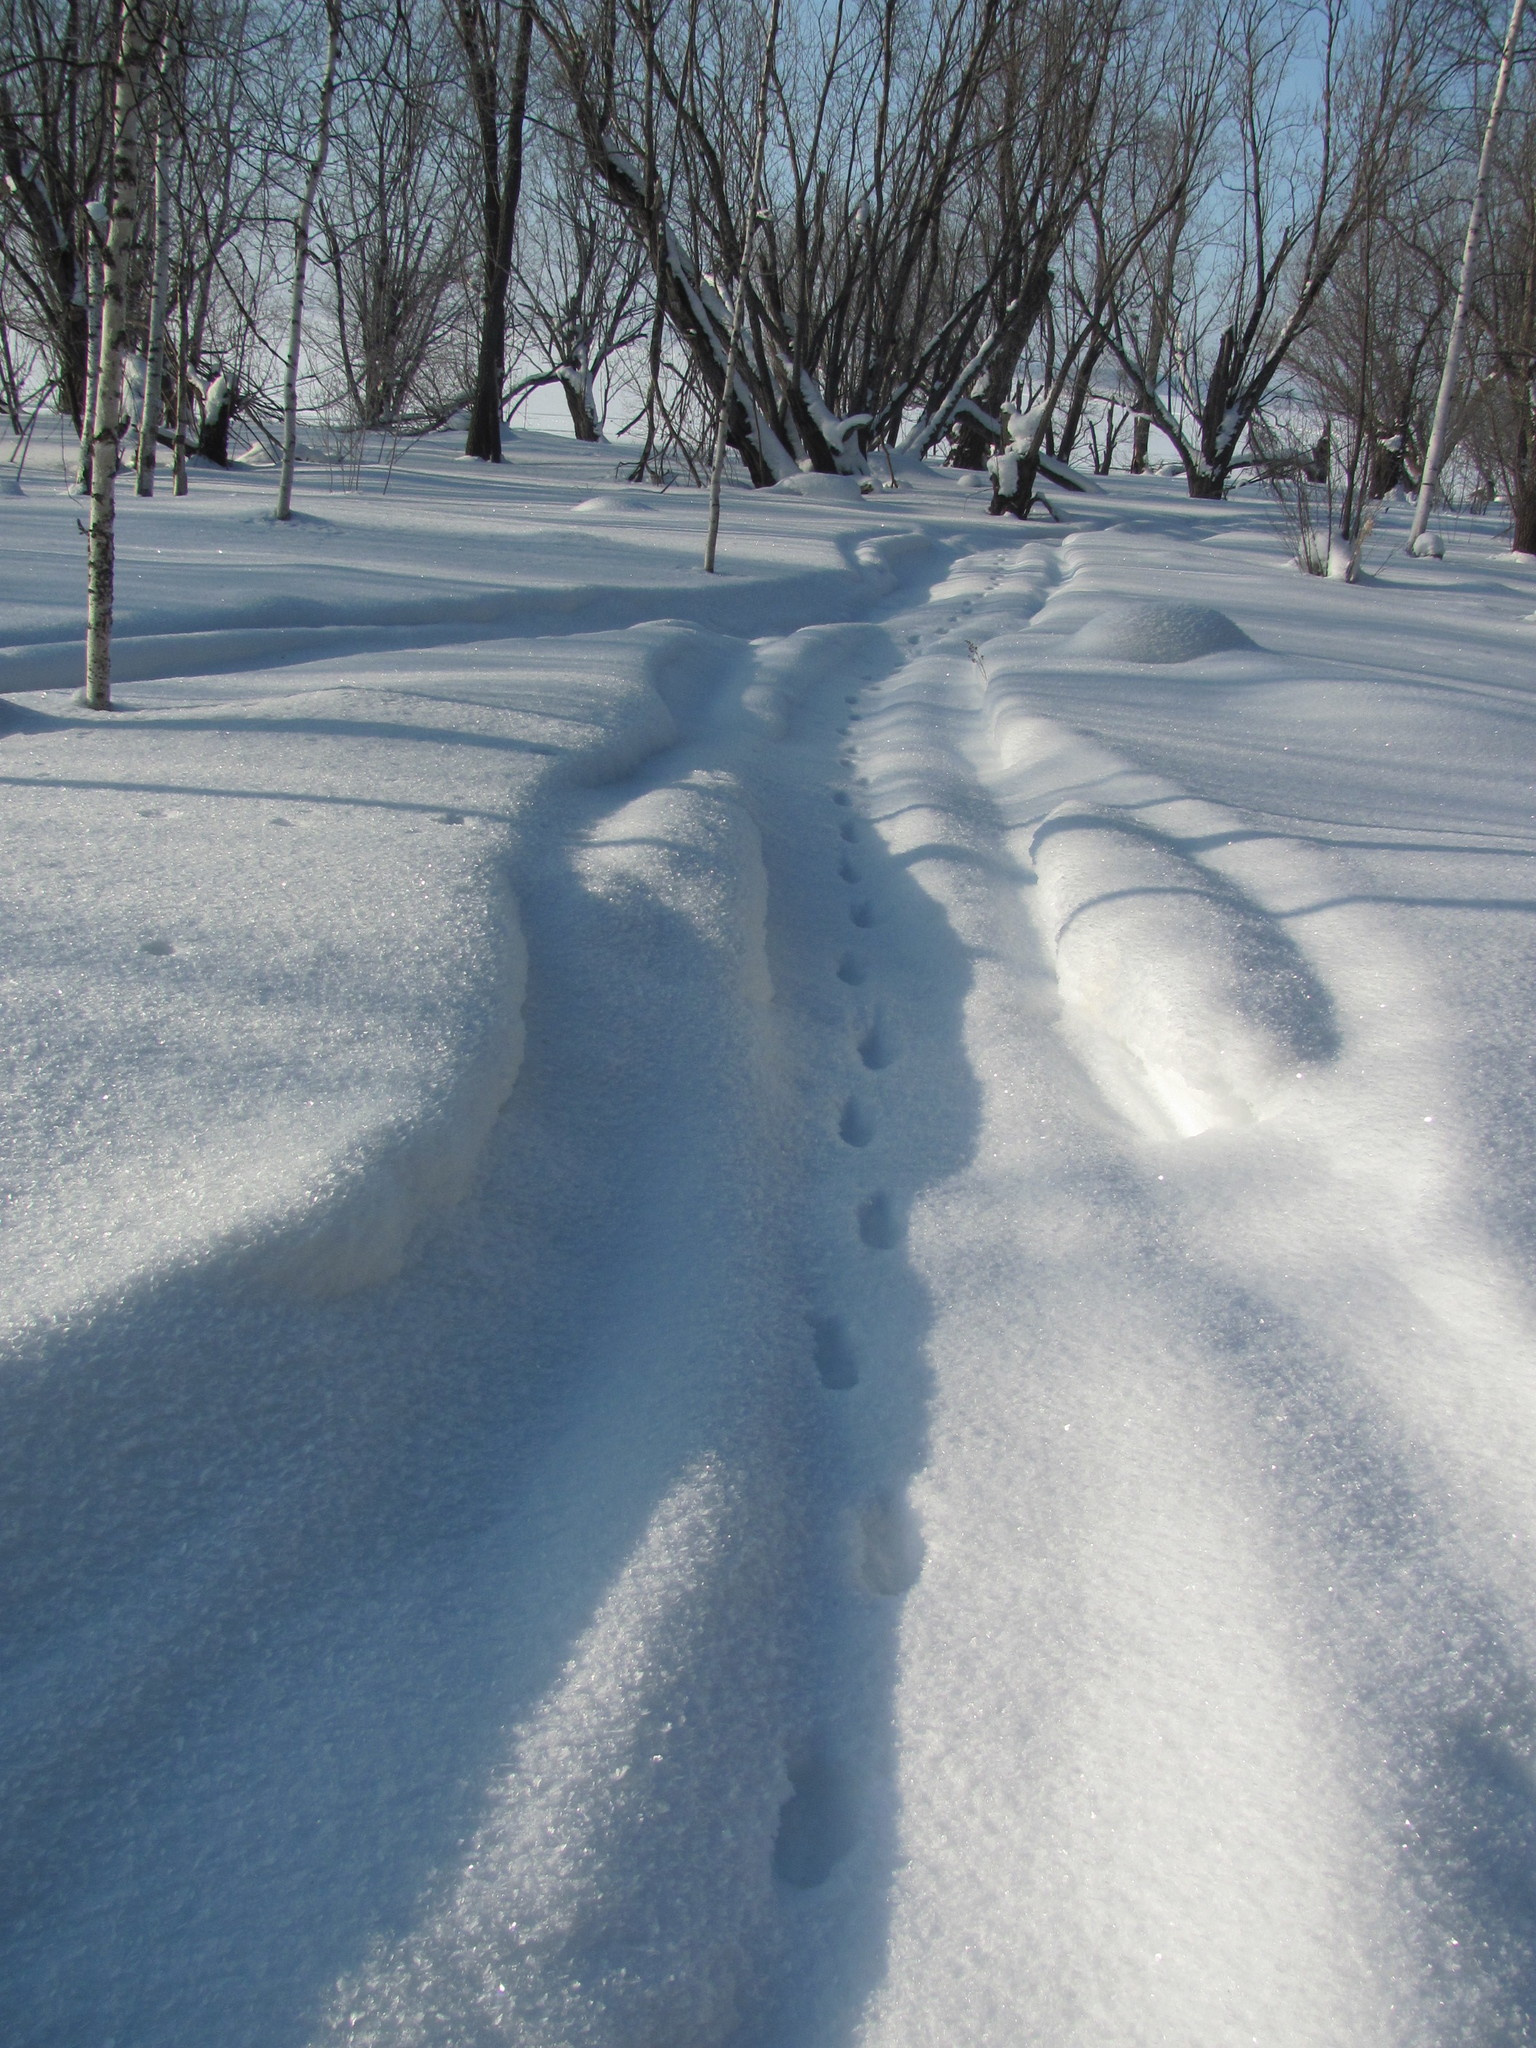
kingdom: Animalia
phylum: Chordata
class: Mammalia
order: Carnivora
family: Canidae
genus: Vulpes
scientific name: Vulpes vulpes
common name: Red fox
